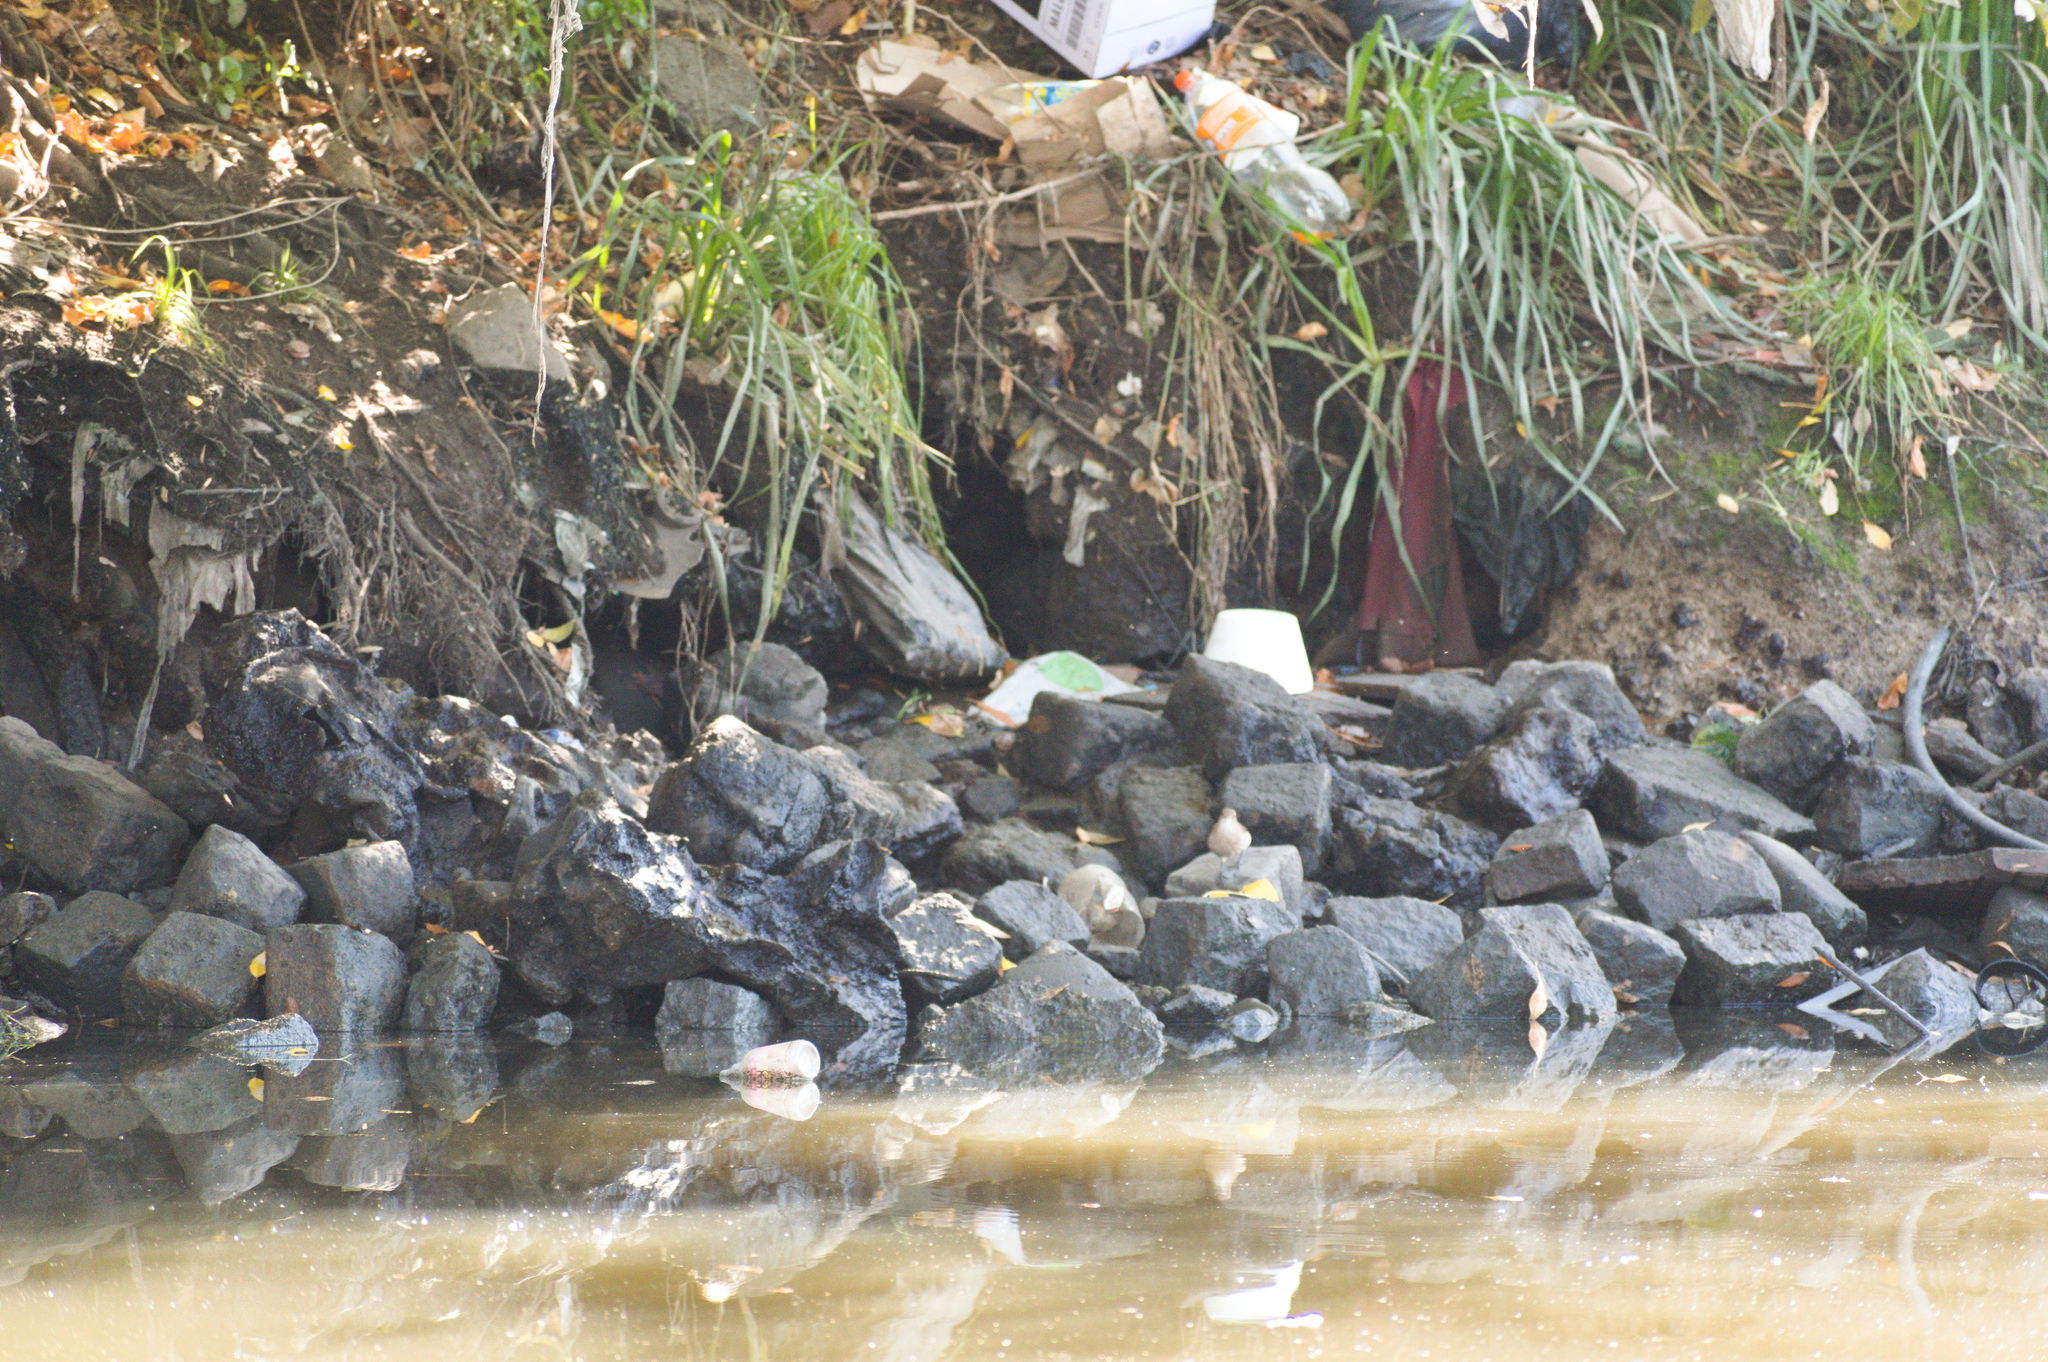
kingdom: Animalia
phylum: Chordata
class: Aves
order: Passeriformes
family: Furnariidae
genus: Furnarius
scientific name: Furnarius rufus
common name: Rufous hornero
